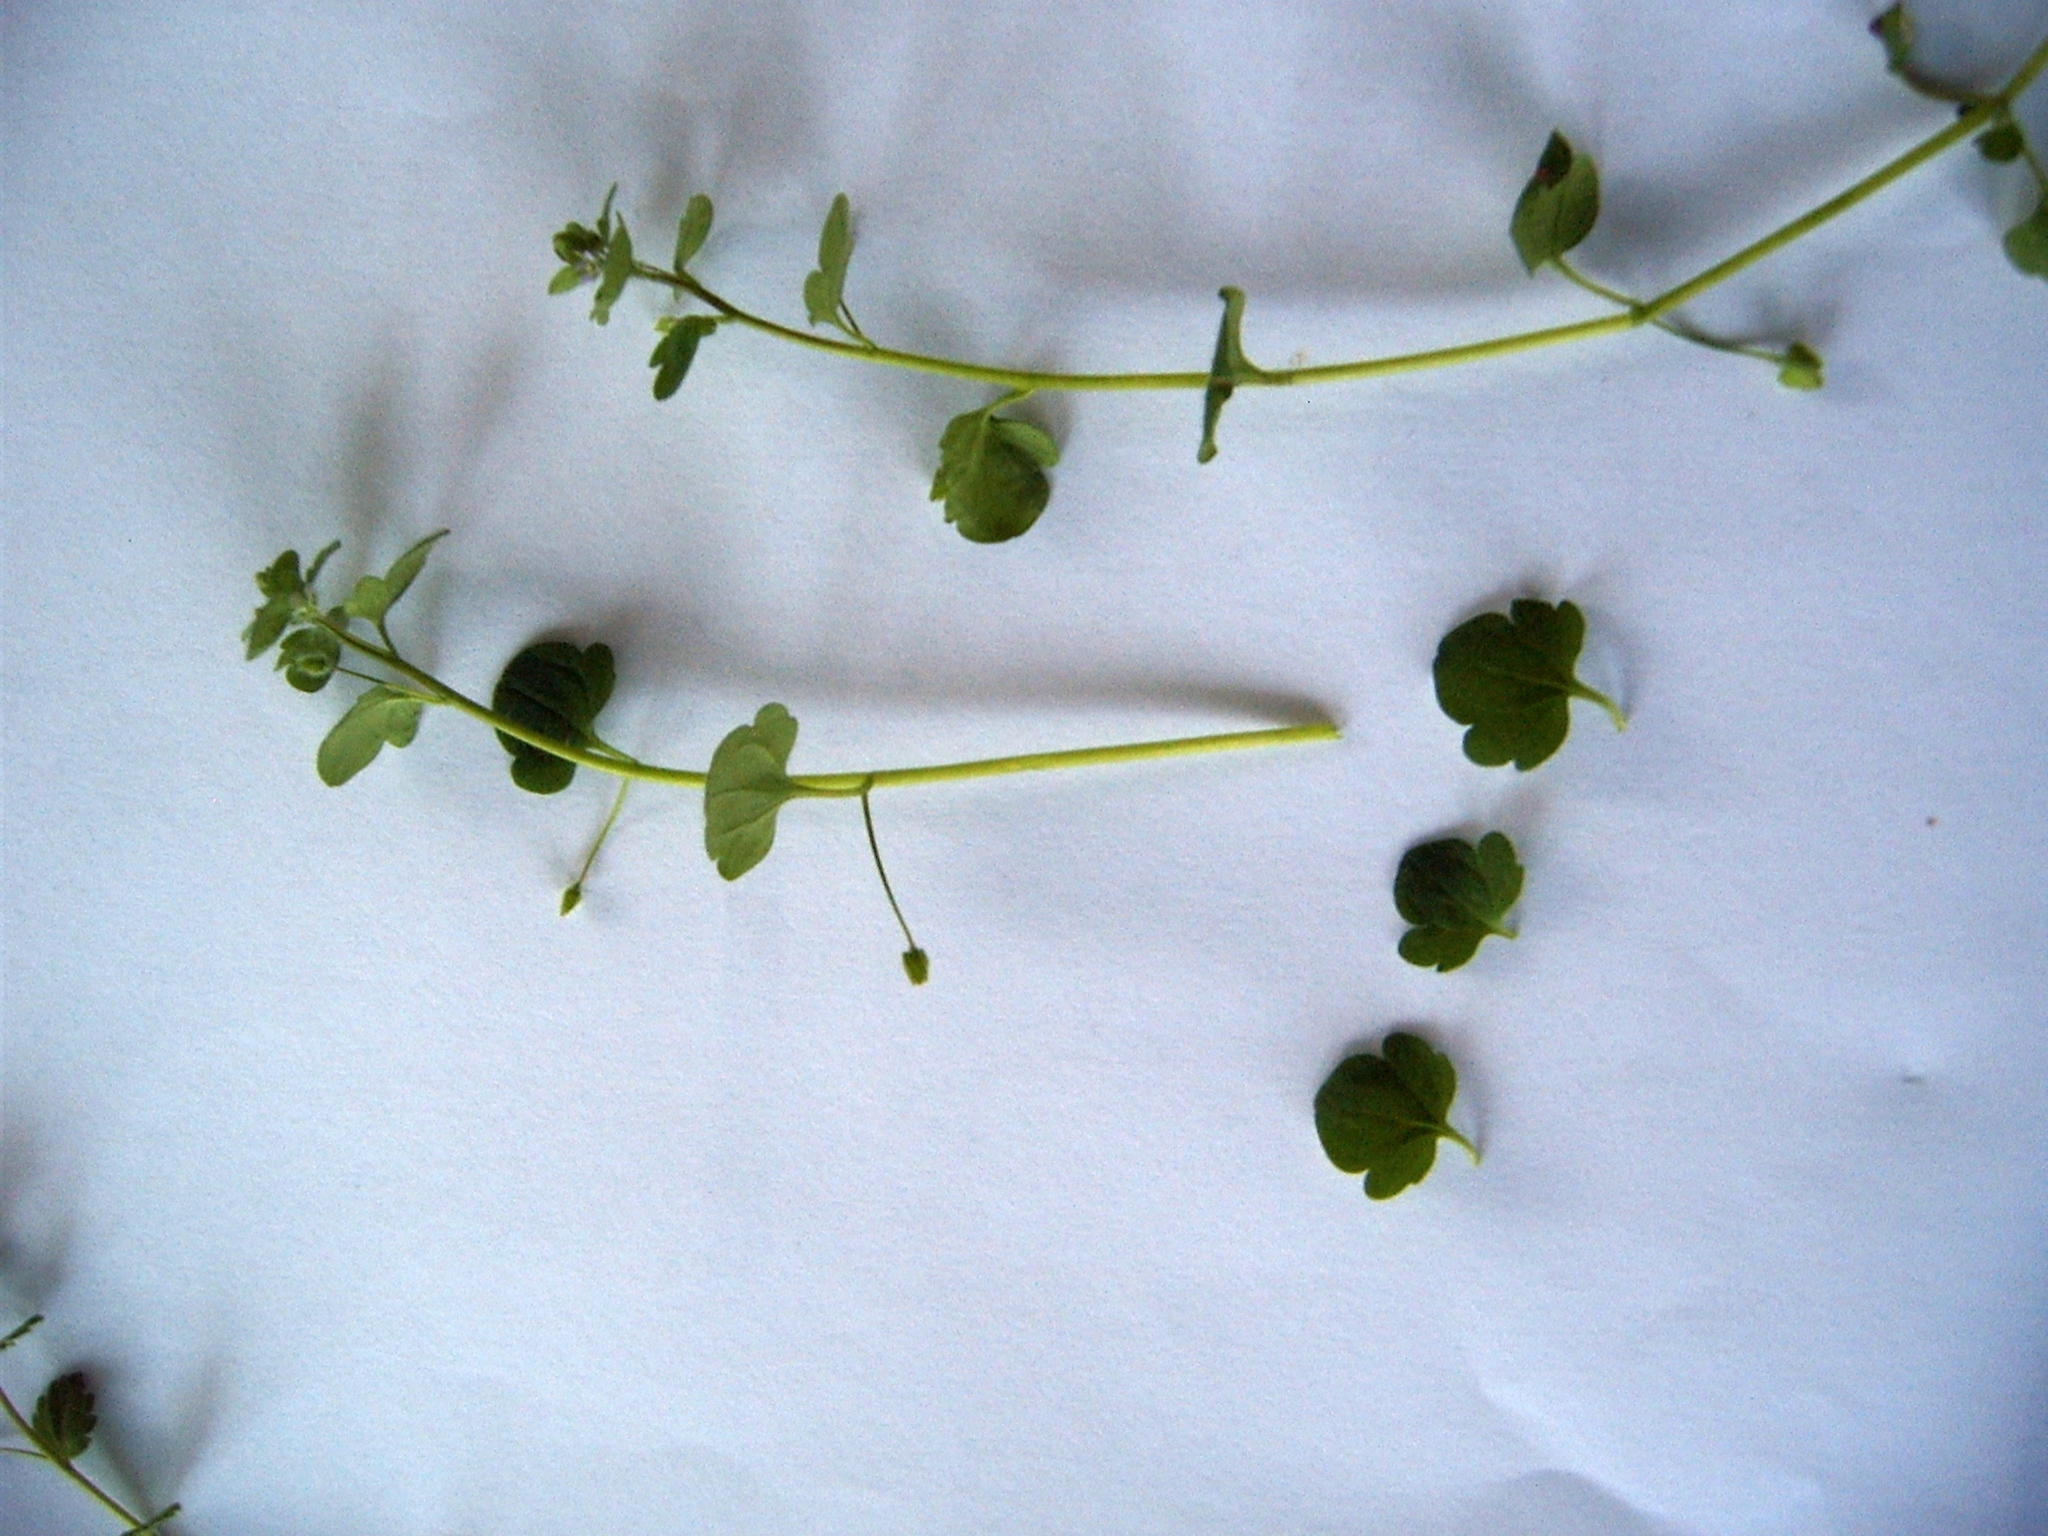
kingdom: Plantae
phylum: Tracheophyta
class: Magnoliopsida
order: Lamiales
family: Plantaginaceae
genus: Veronica
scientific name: Veronica hederifolia
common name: Ivy-leaved speedwell
